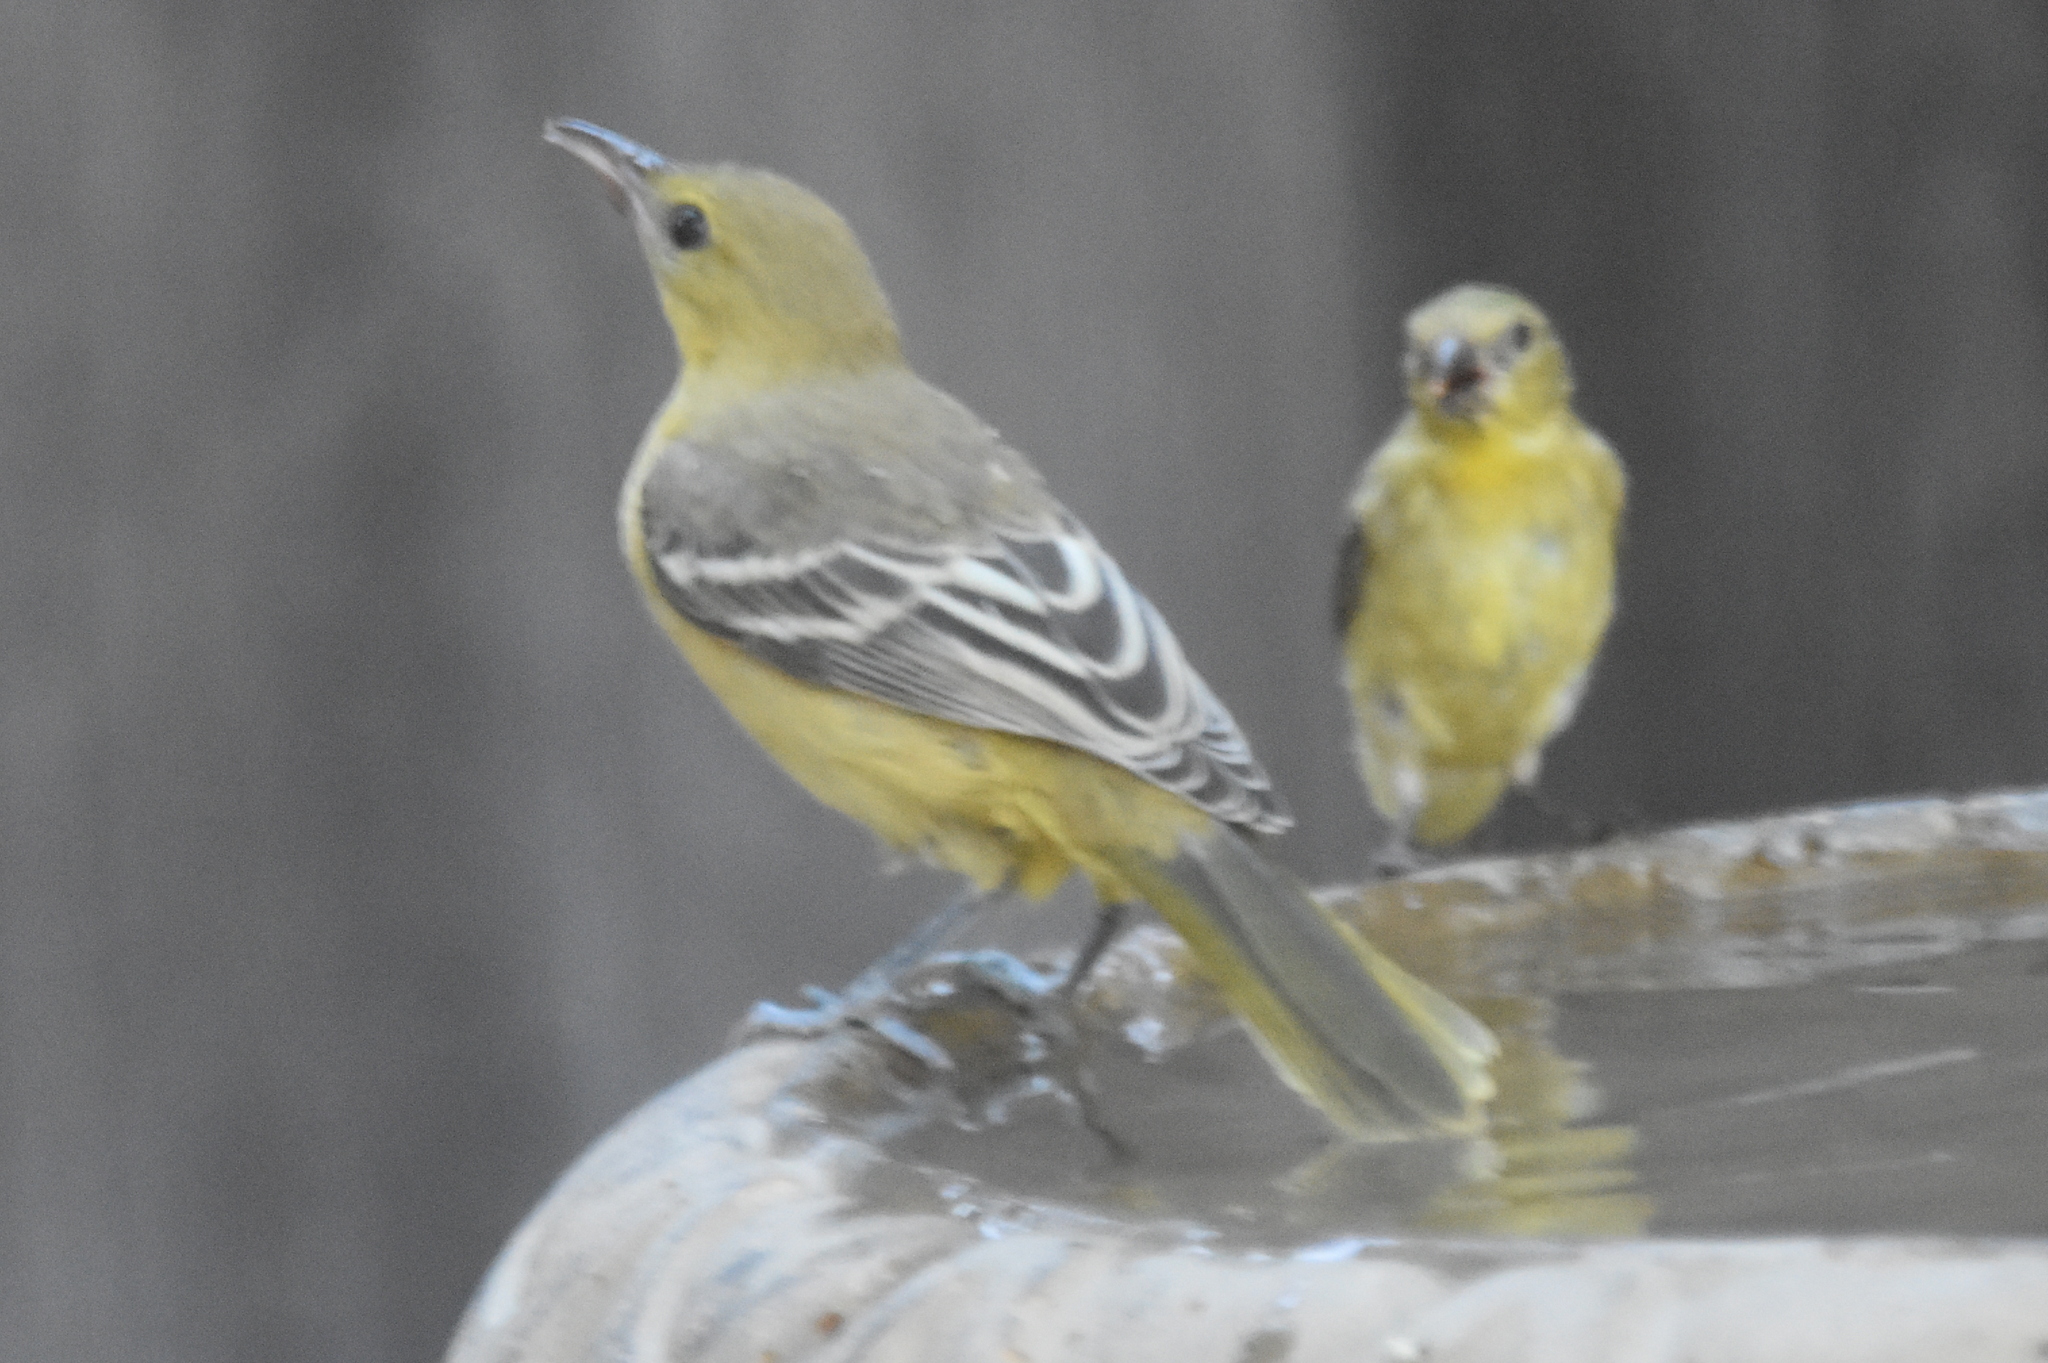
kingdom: Animalia
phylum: Chordata
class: Aves
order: Passeriformes
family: Icteridae
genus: Icterus
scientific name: Icterus cucullatus
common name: Hooded oriole
